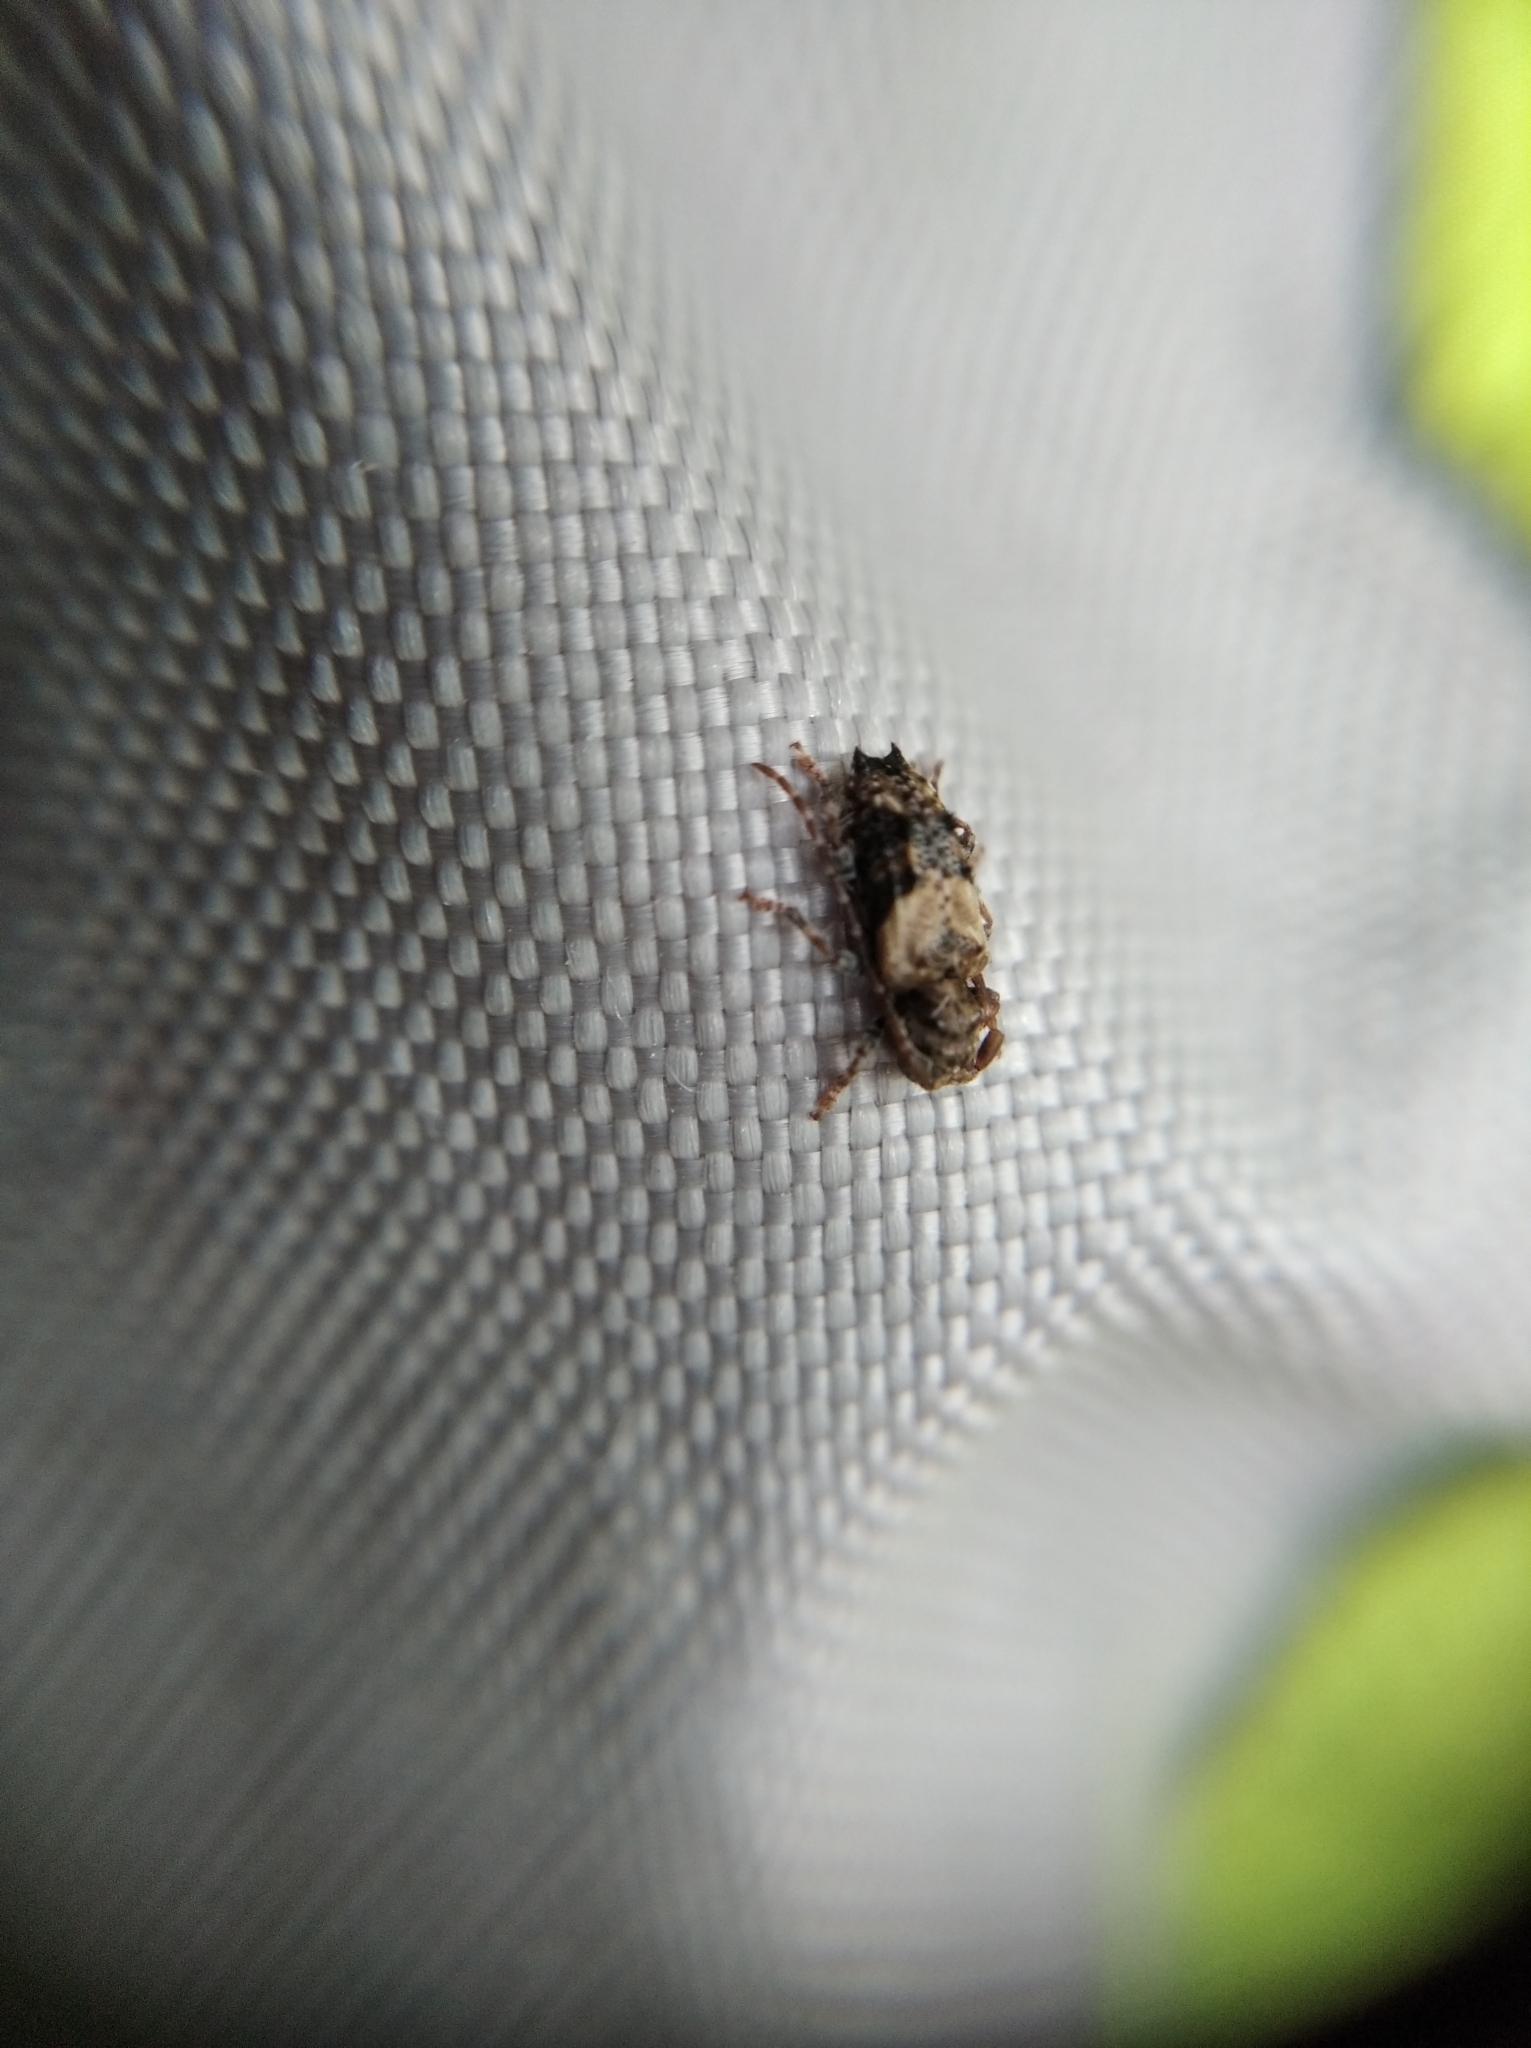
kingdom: Animalia
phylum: Arthropoda
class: Insecta
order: Coleoptera
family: Cerambycidae
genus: Pogonocherus
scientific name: Pogonocherus hispidus
